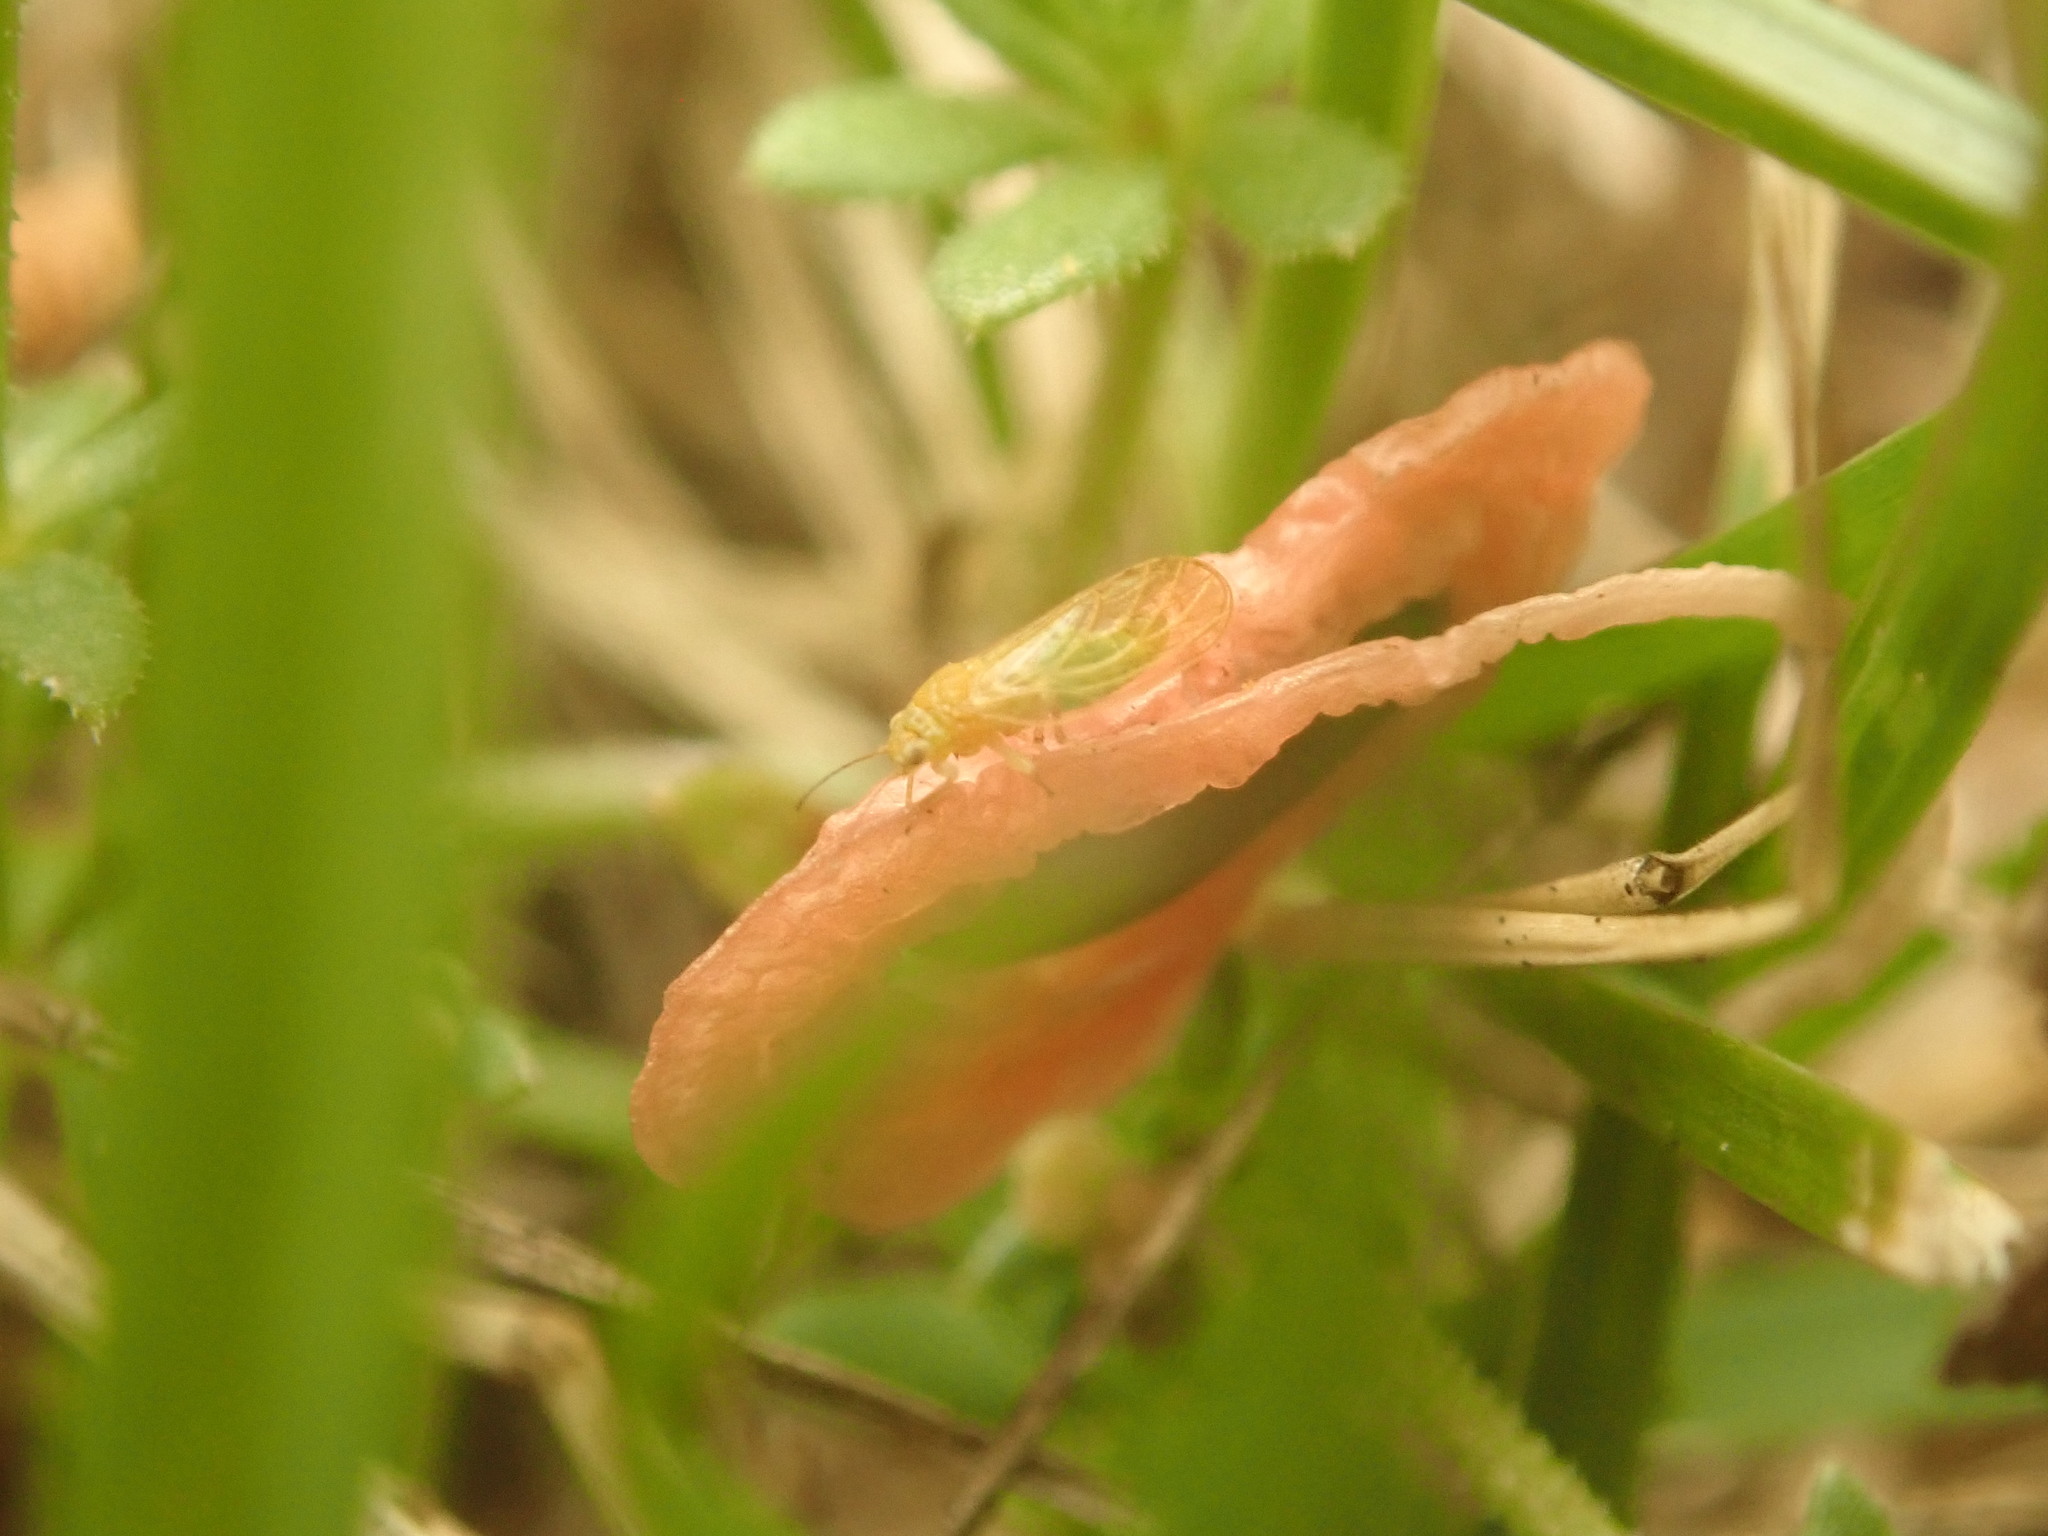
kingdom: Animalia
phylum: Arthropoda
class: Insecta
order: Hemiptera
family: Psyllidae
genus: Acizzia
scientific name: Acizzia uncatoides
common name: Psyllid
